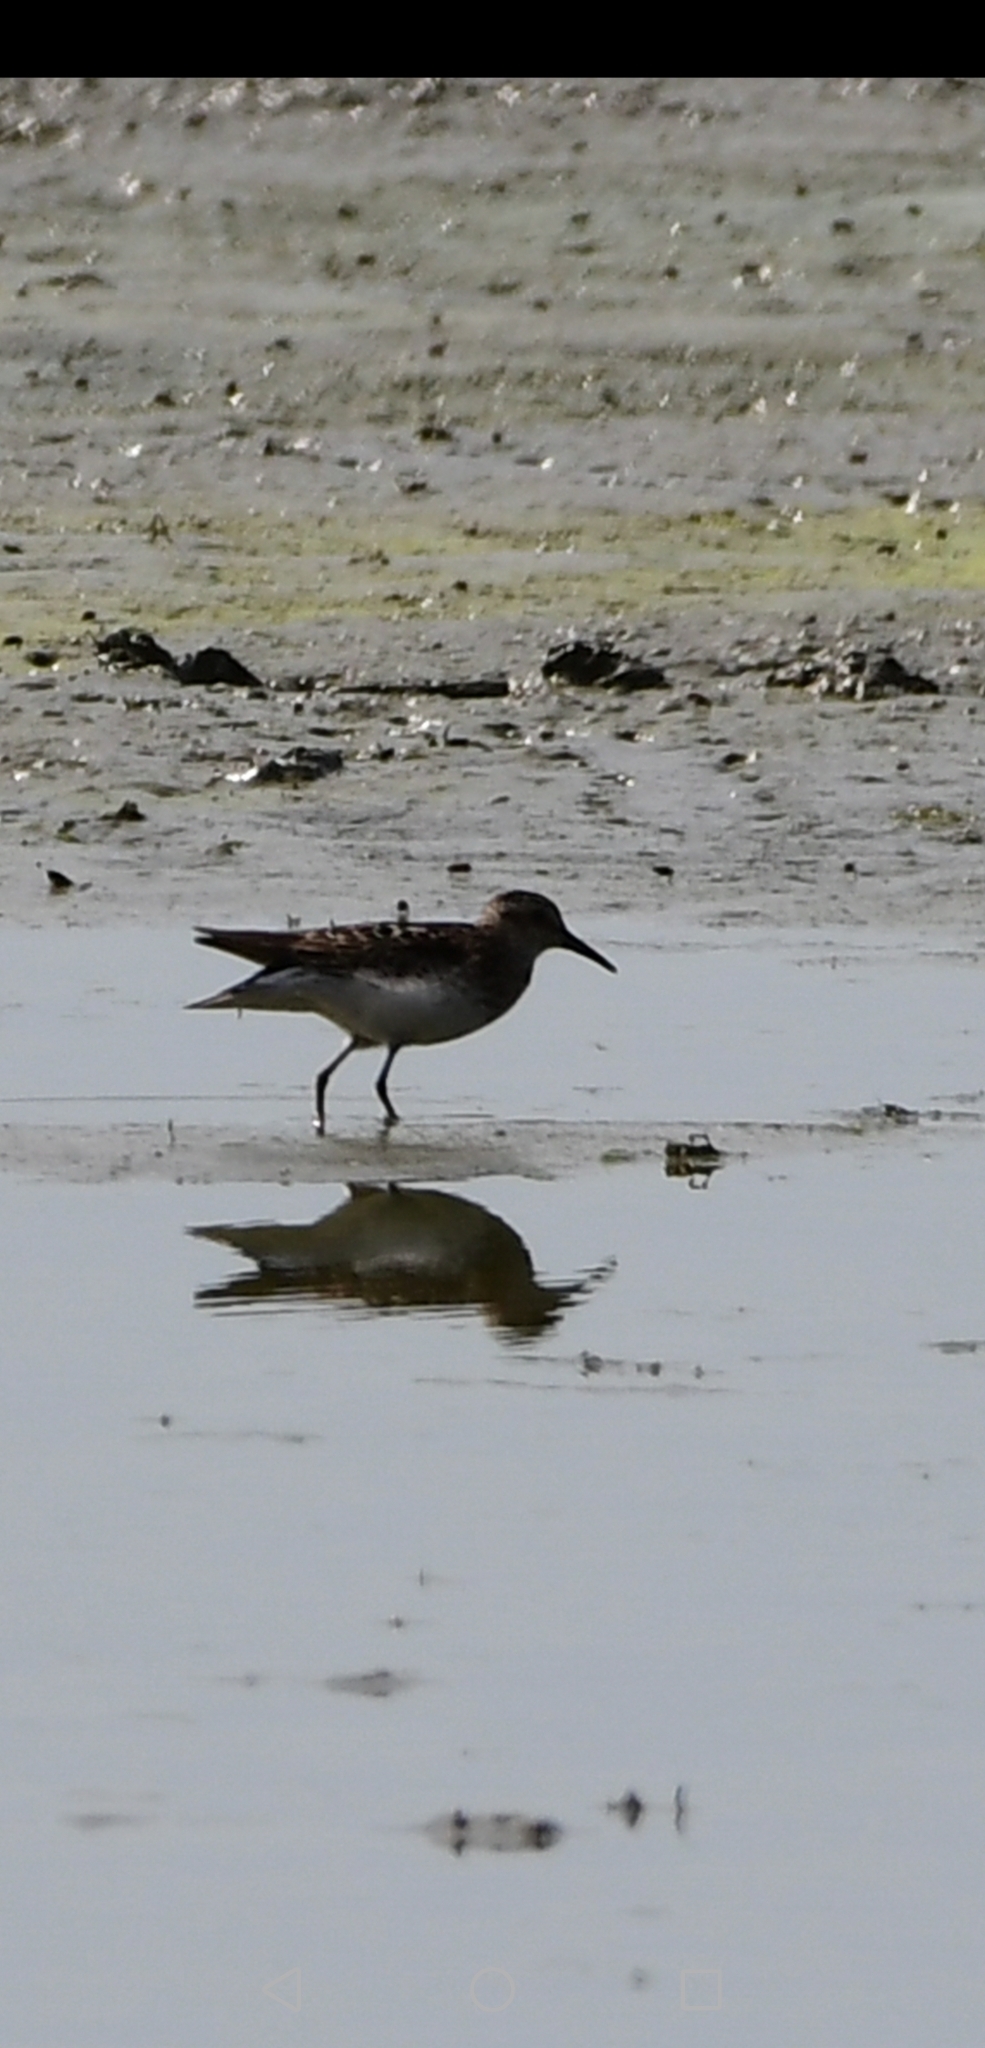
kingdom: Animalia
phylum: Chordata
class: Aves
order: Charadriiformes
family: Scolopacidae
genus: Calidris
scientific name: Calidris minutilla
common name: Least sandpiper
